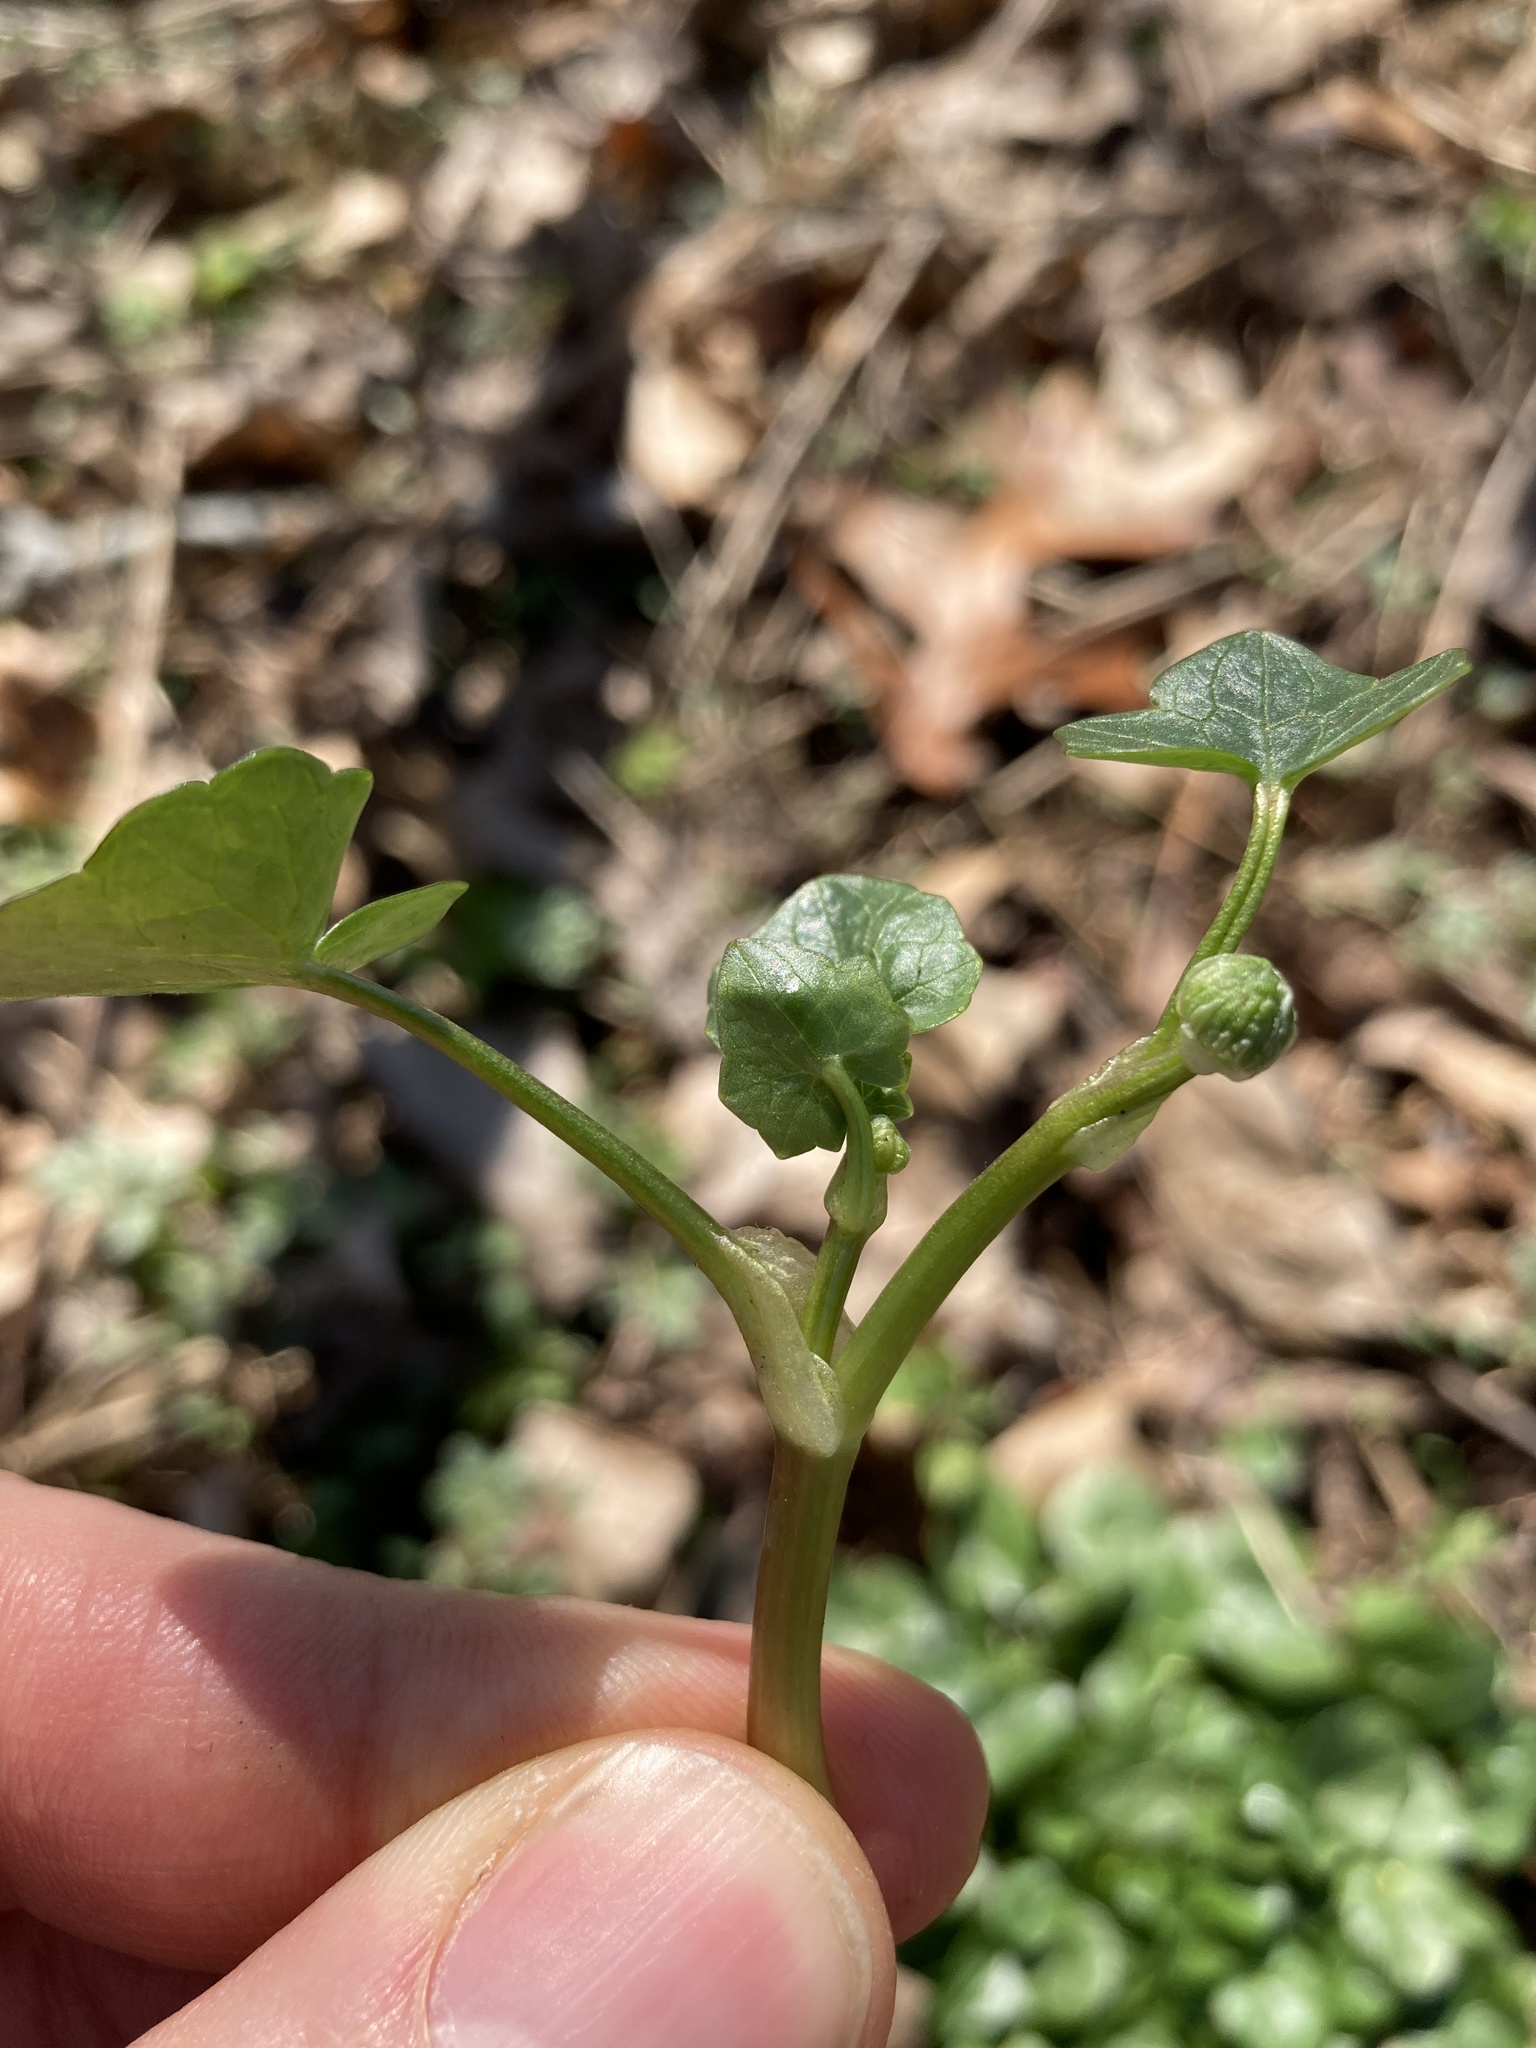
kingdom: Plantae
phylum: Tracheophyta
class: Magnoliopsida
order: Ranunculales
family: Ranunculaceae
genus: Ficaria
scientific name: Ficaria verna
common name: Lesser celandine
